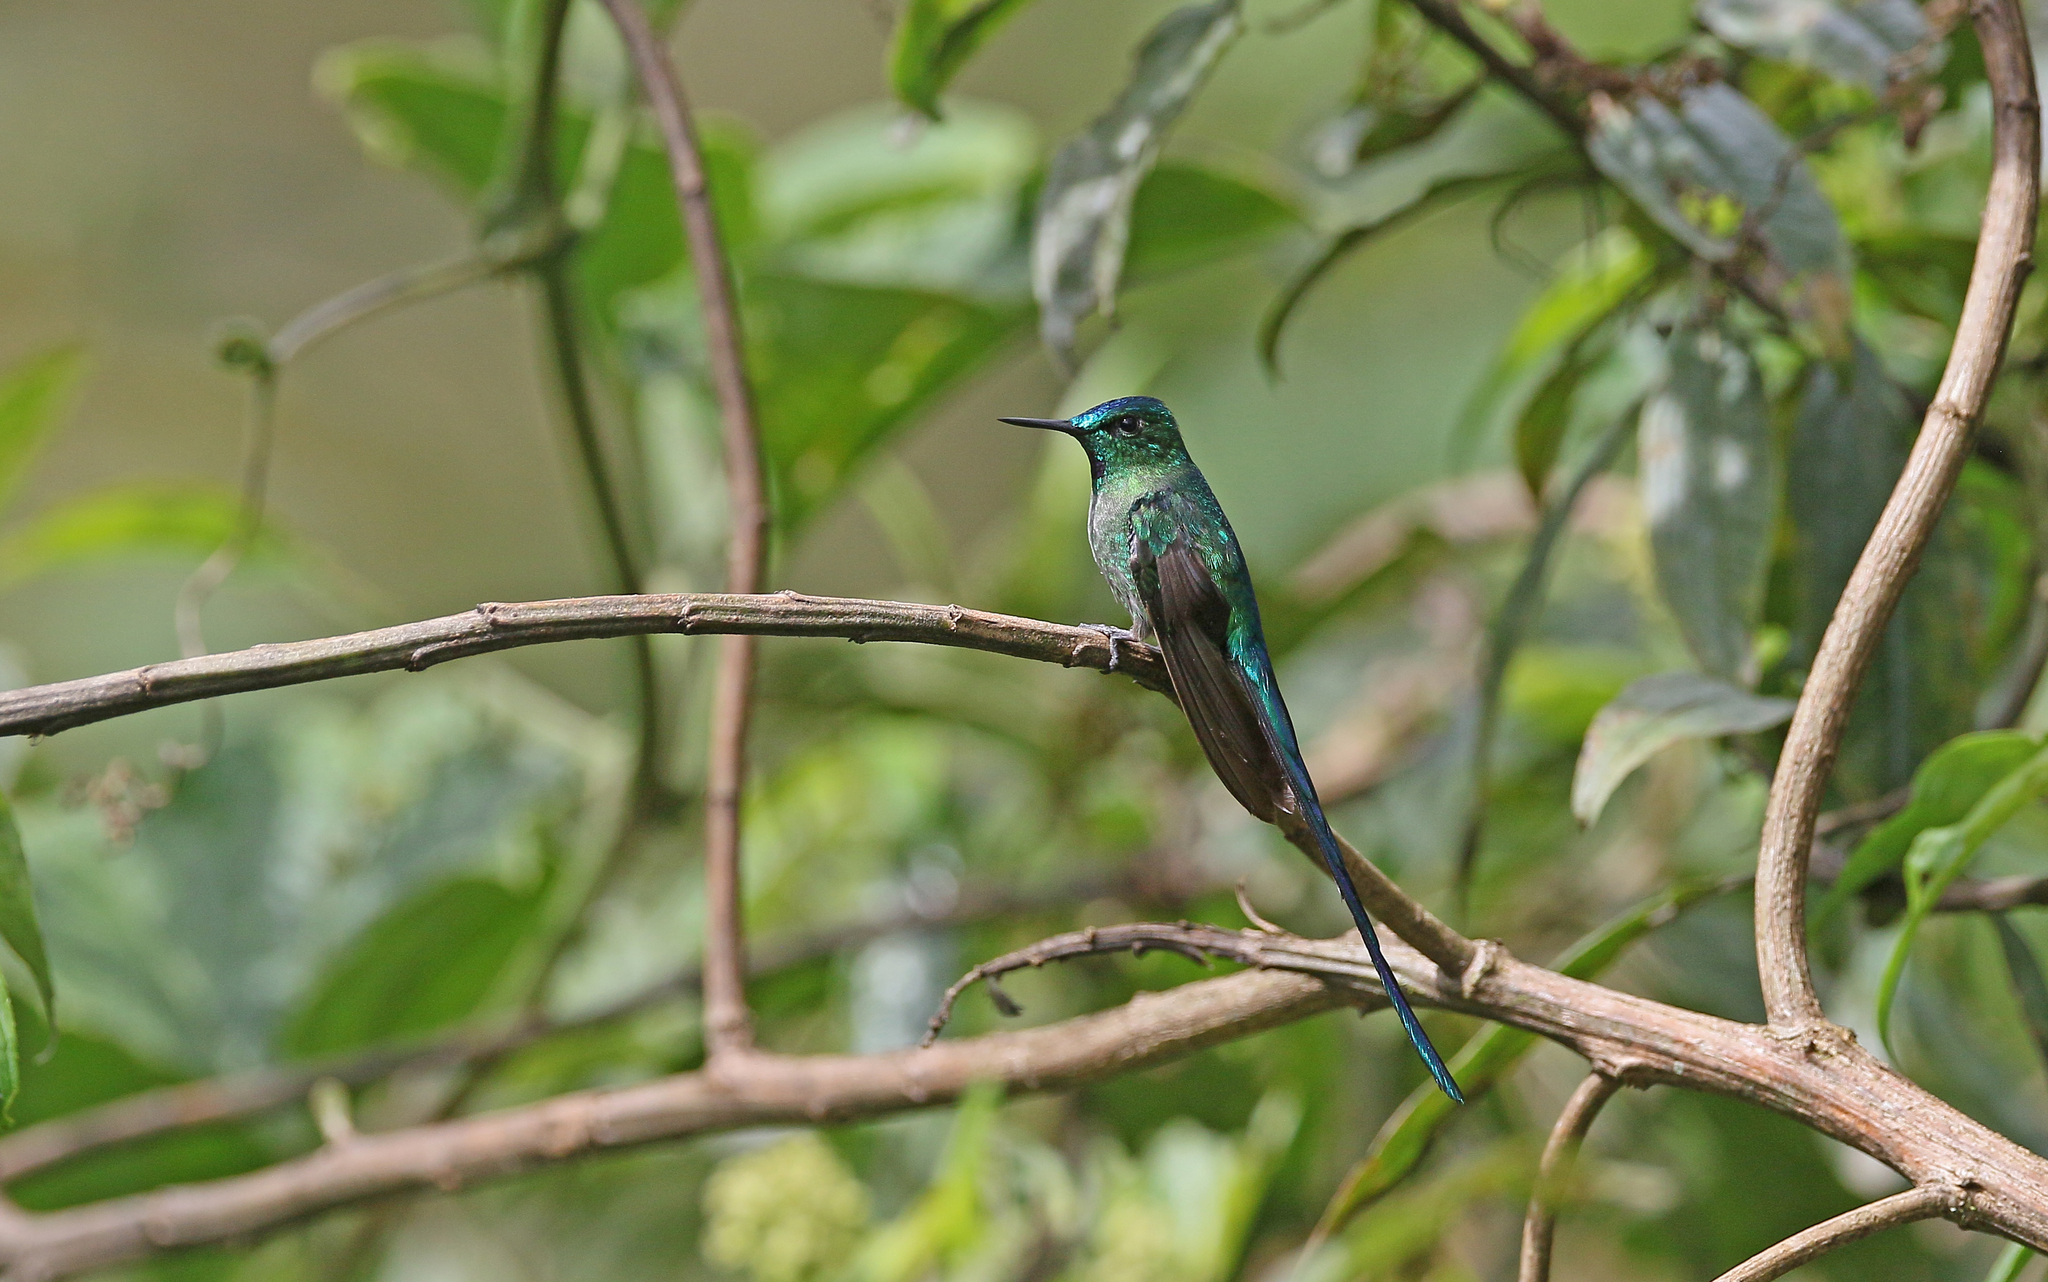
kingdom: Animalia
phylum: Chordata
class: Aves
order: Apodiformes
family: Trochilidae
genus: Aglaiocercus
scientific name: Aglaiocercus kingii
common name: Long-tailed sylph
